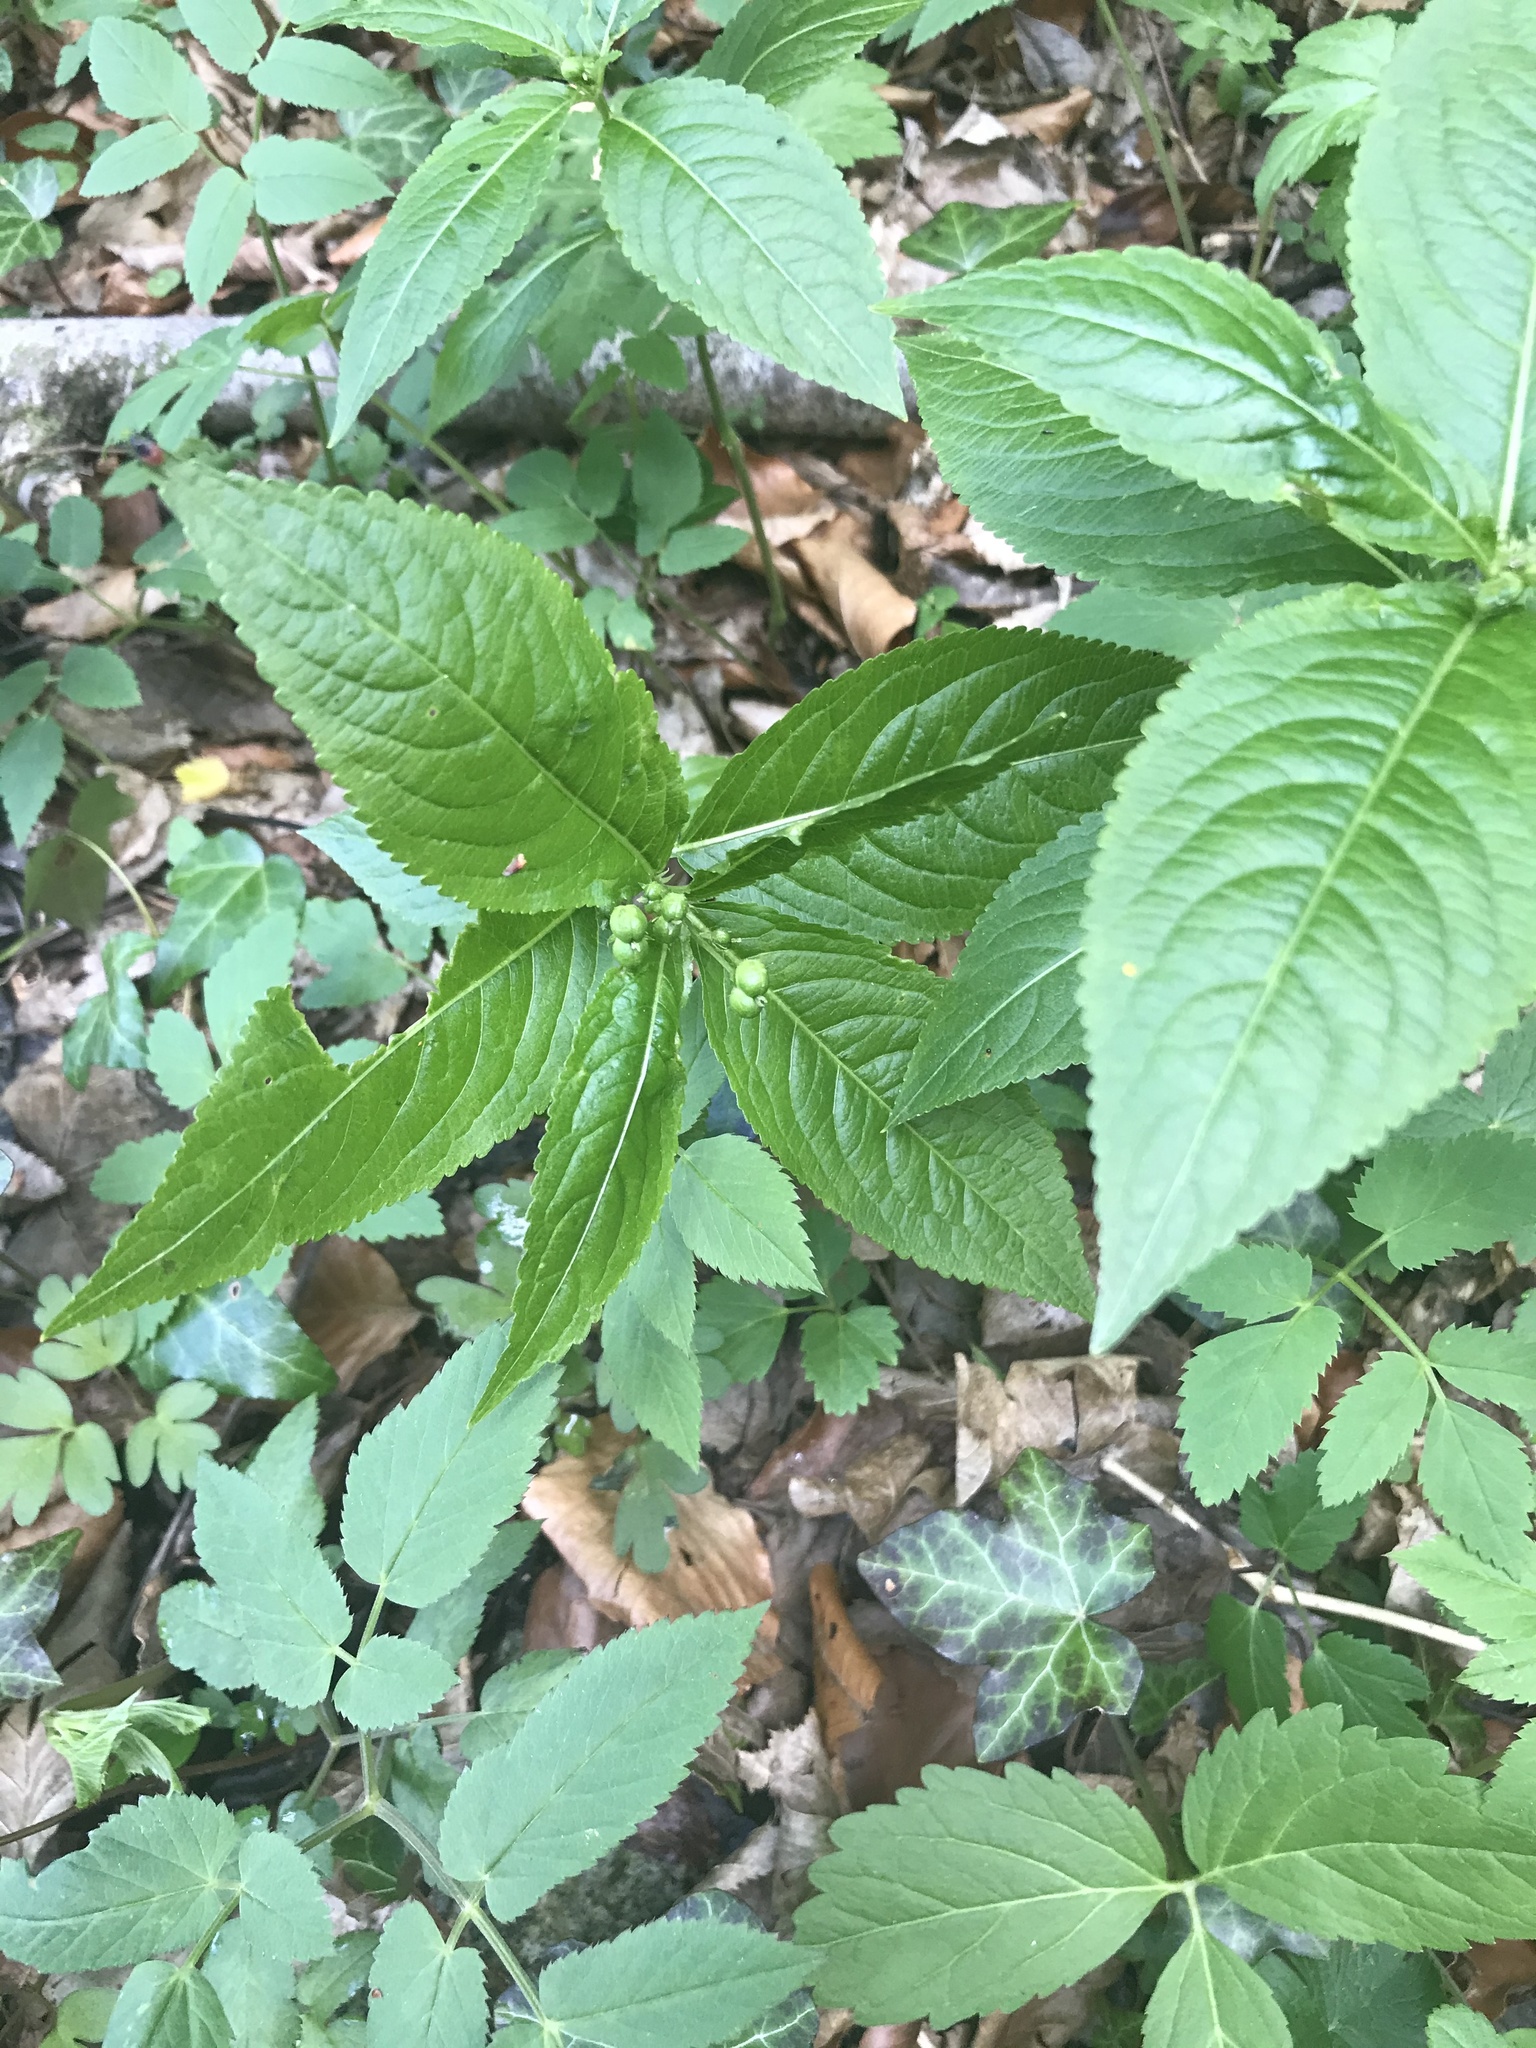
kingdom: Plantae
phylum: Tracheophyta
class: Magnoliopsida
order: Malpighiales
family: Euphorbiaceae
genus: Mercurialis
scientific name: Mercurialis perennis
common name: Dog mercury
